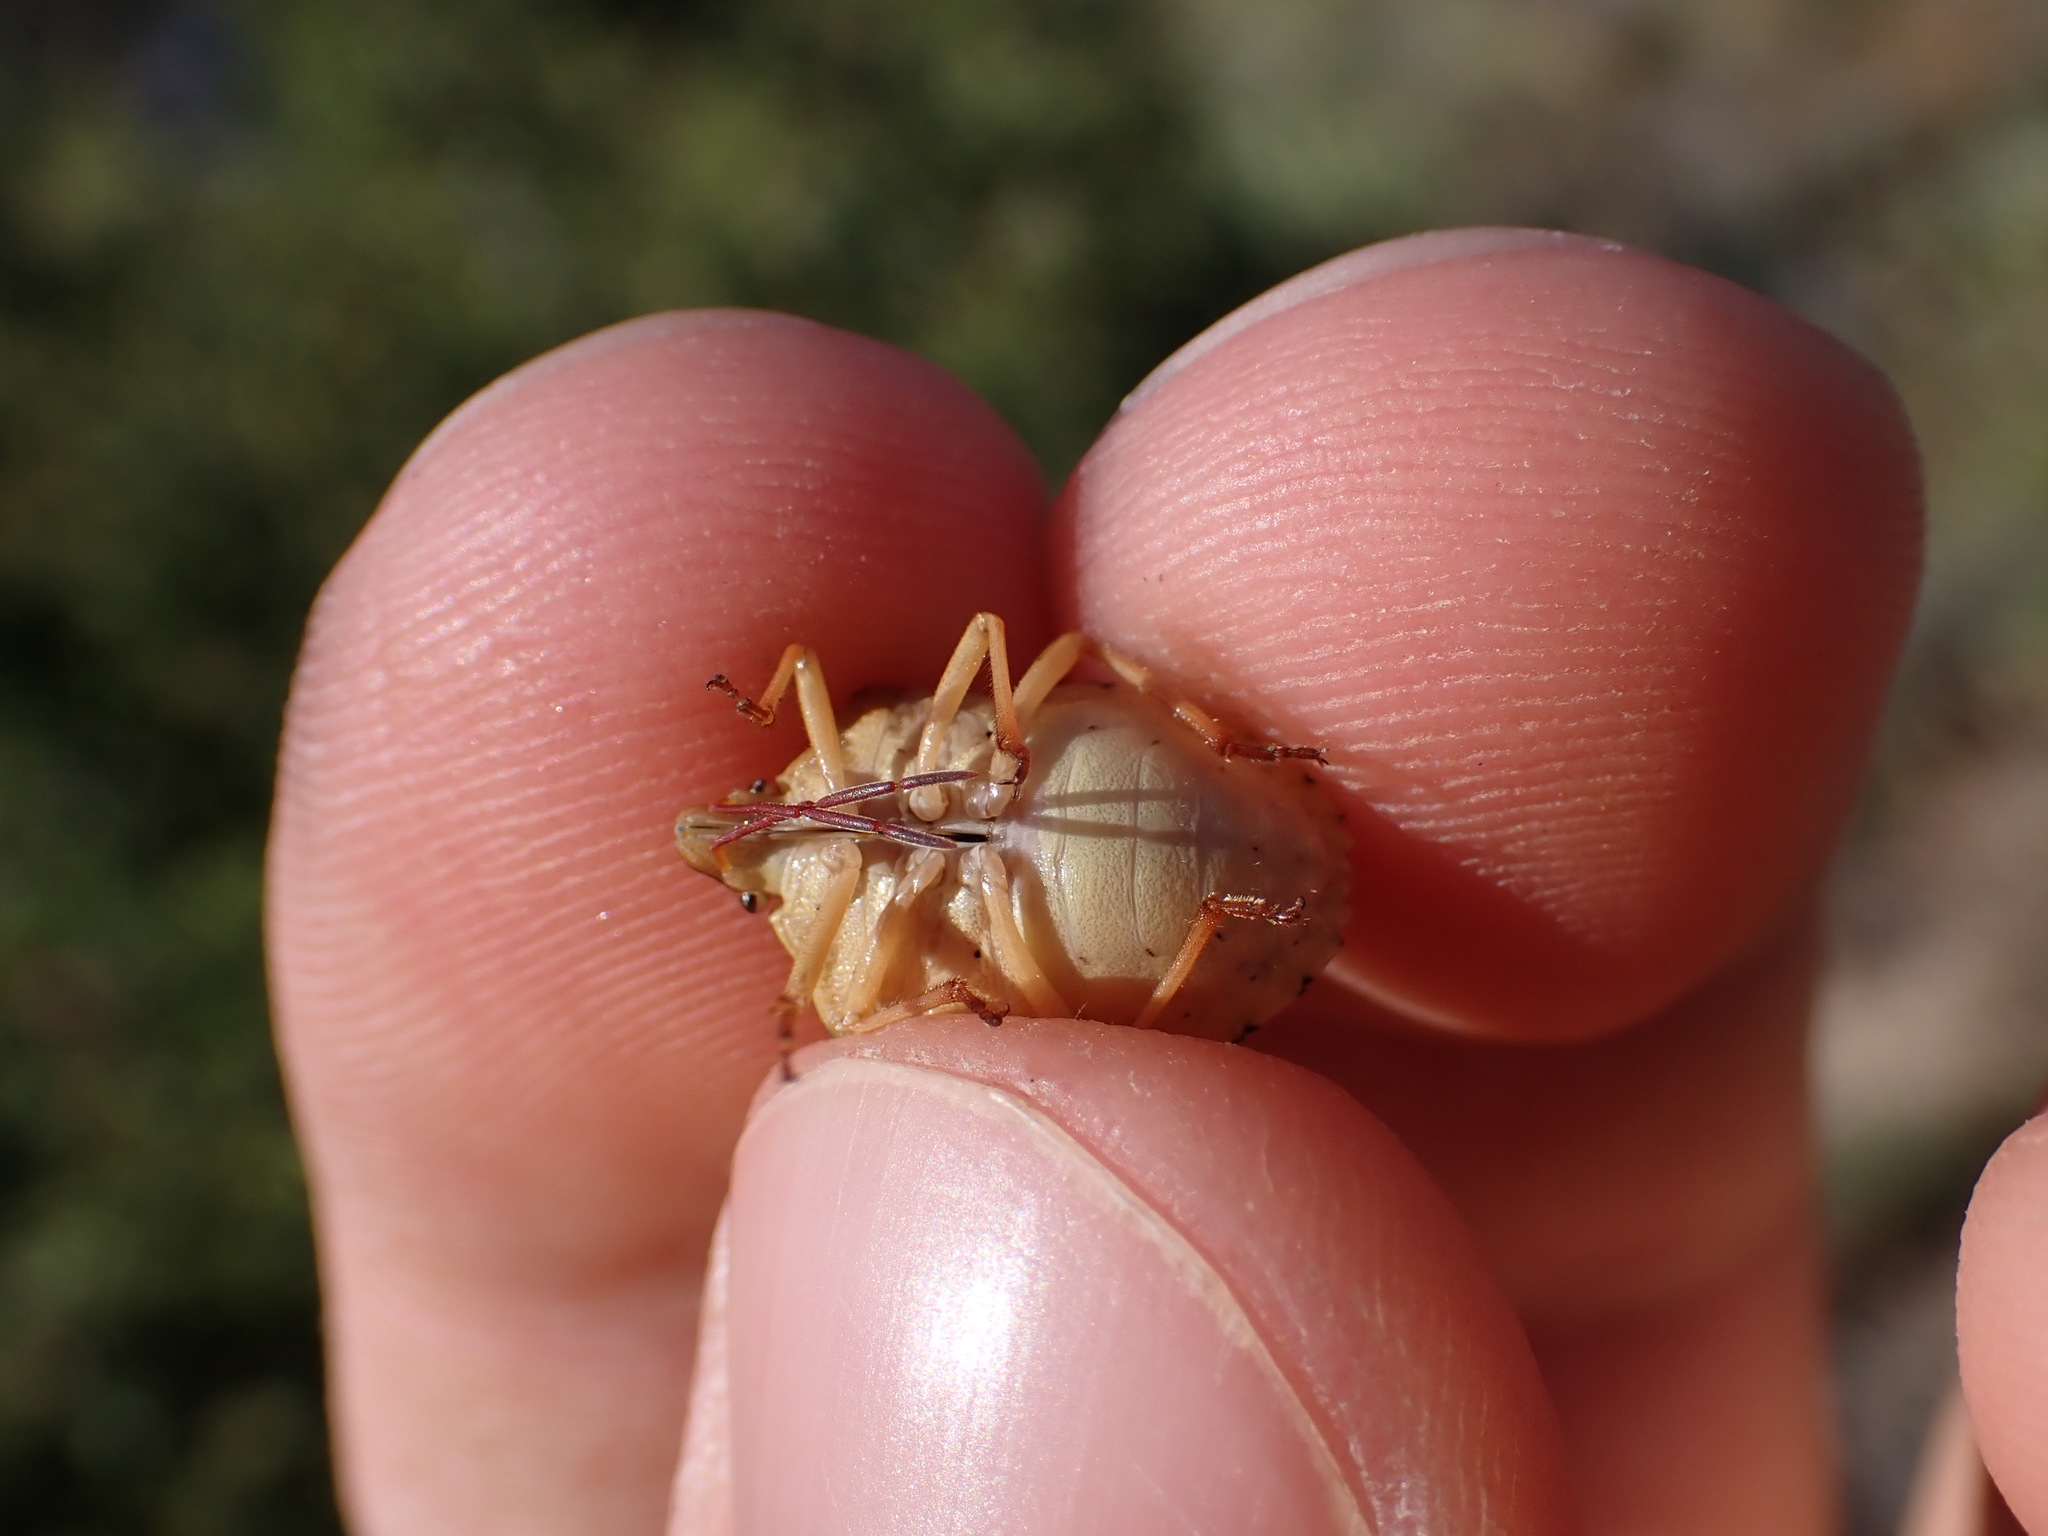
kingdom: Animalia
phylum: Arthropoda
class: Insecta
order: Hemiptera
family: Miridae
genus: Orthops
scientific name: Orthops kalmii
